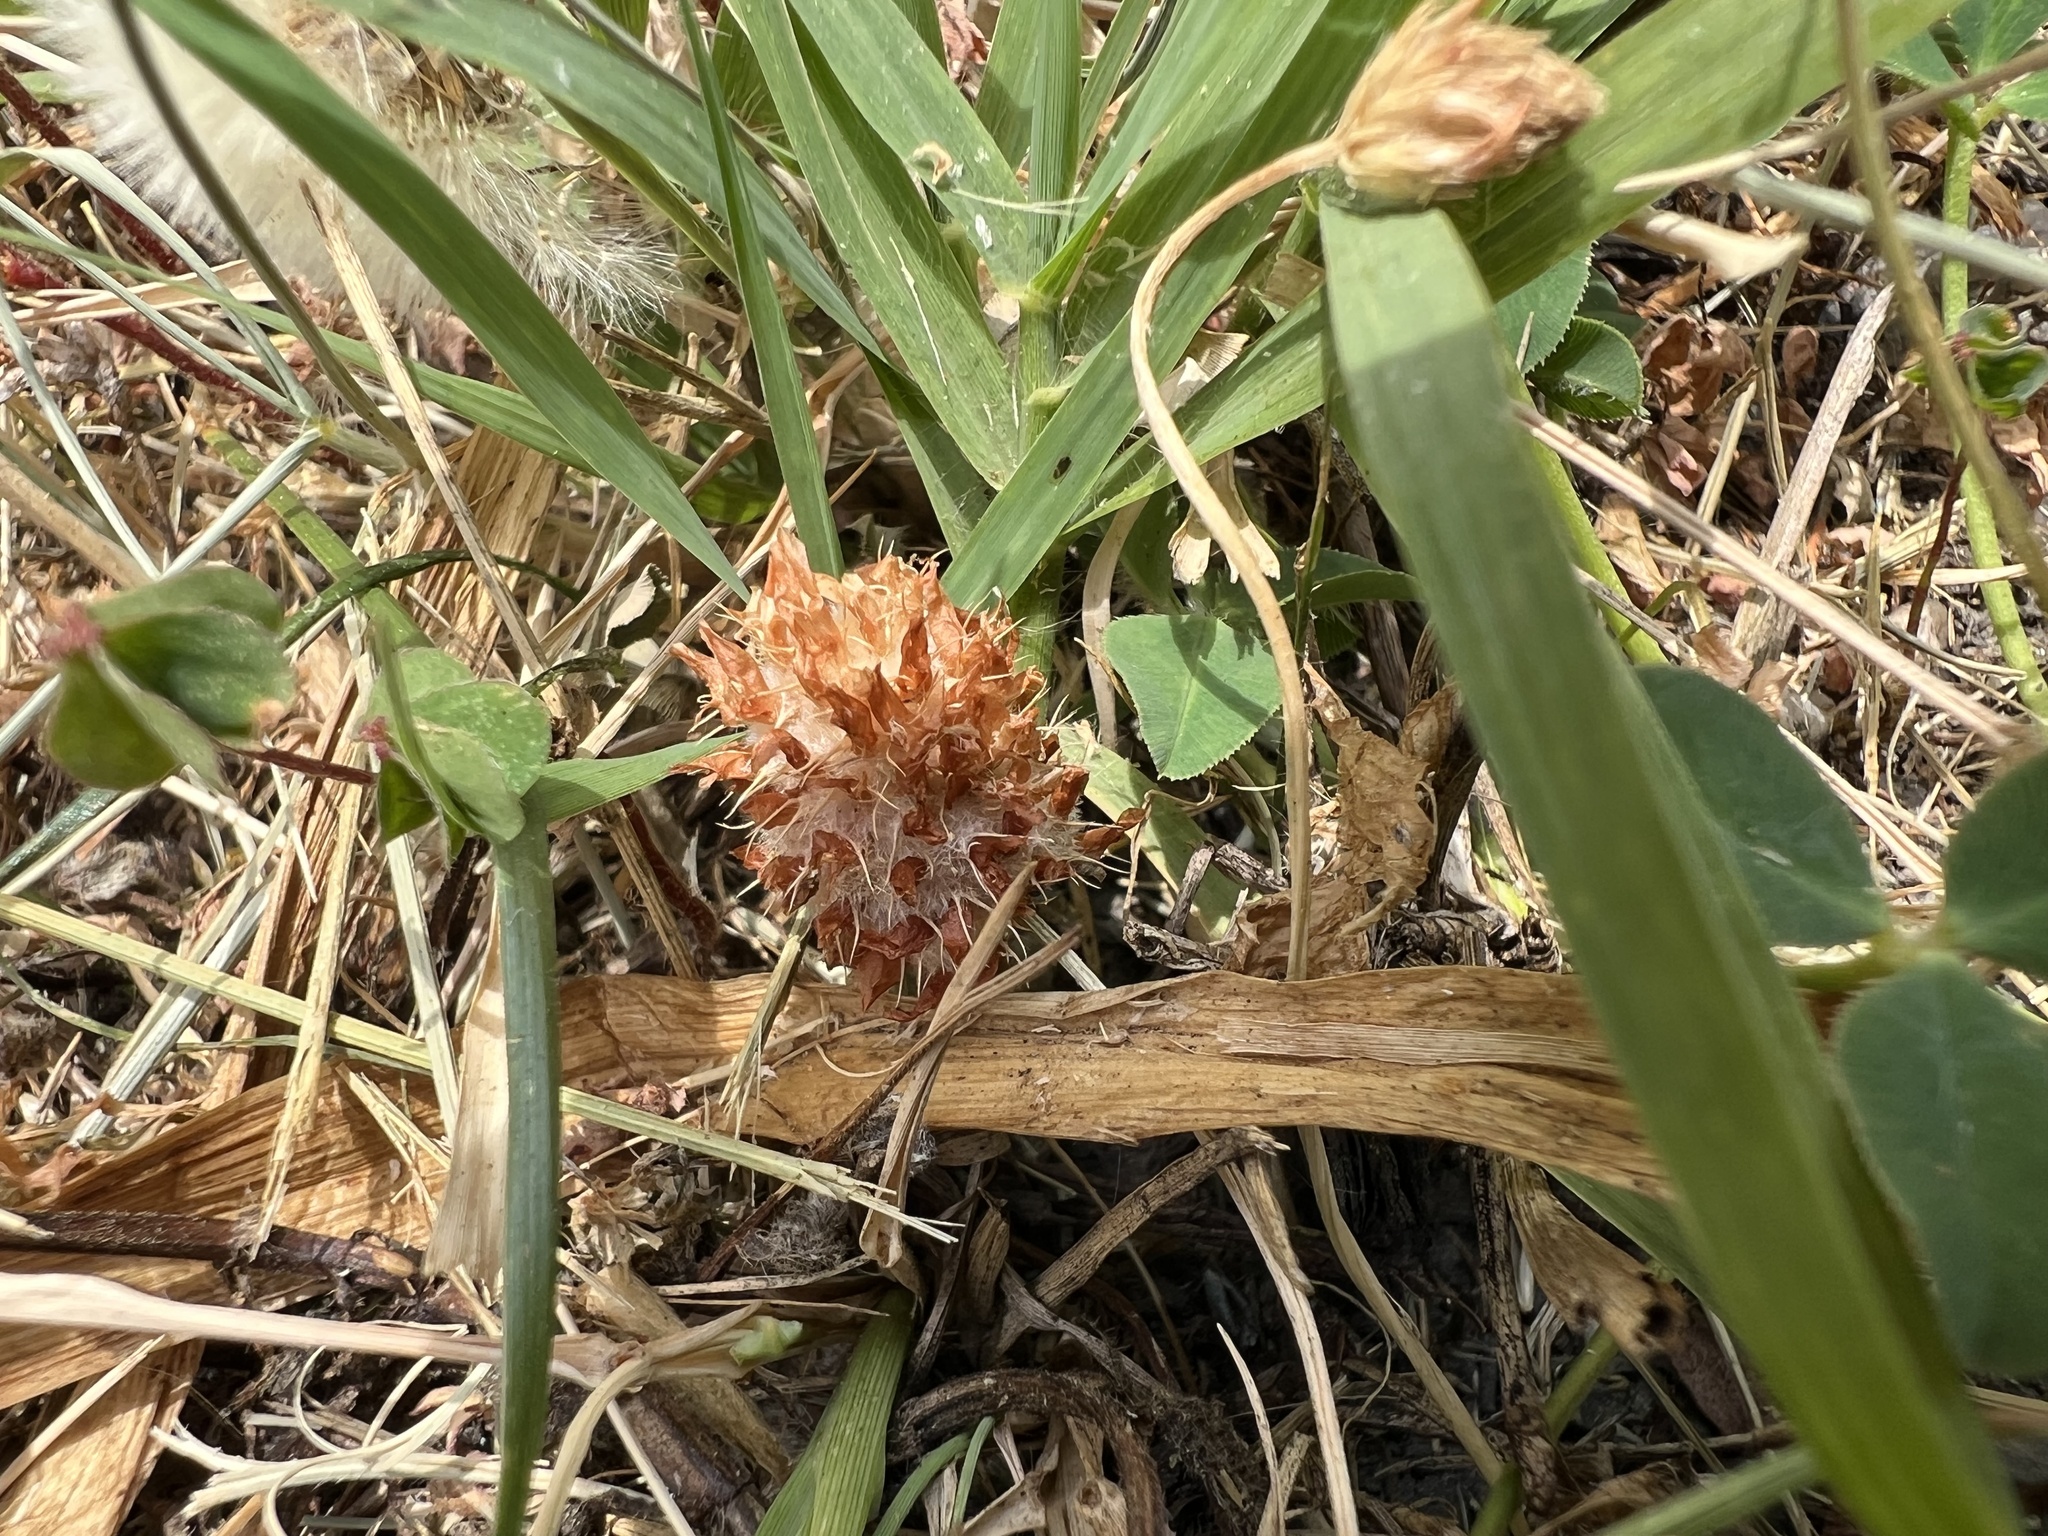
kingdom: Plantae
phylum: Tracheophyta
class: Magnoliopsida
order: Fabales
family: Fabaceae
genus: Trifolium
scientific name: Trifolium fragiferum
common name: Strawberry clover
